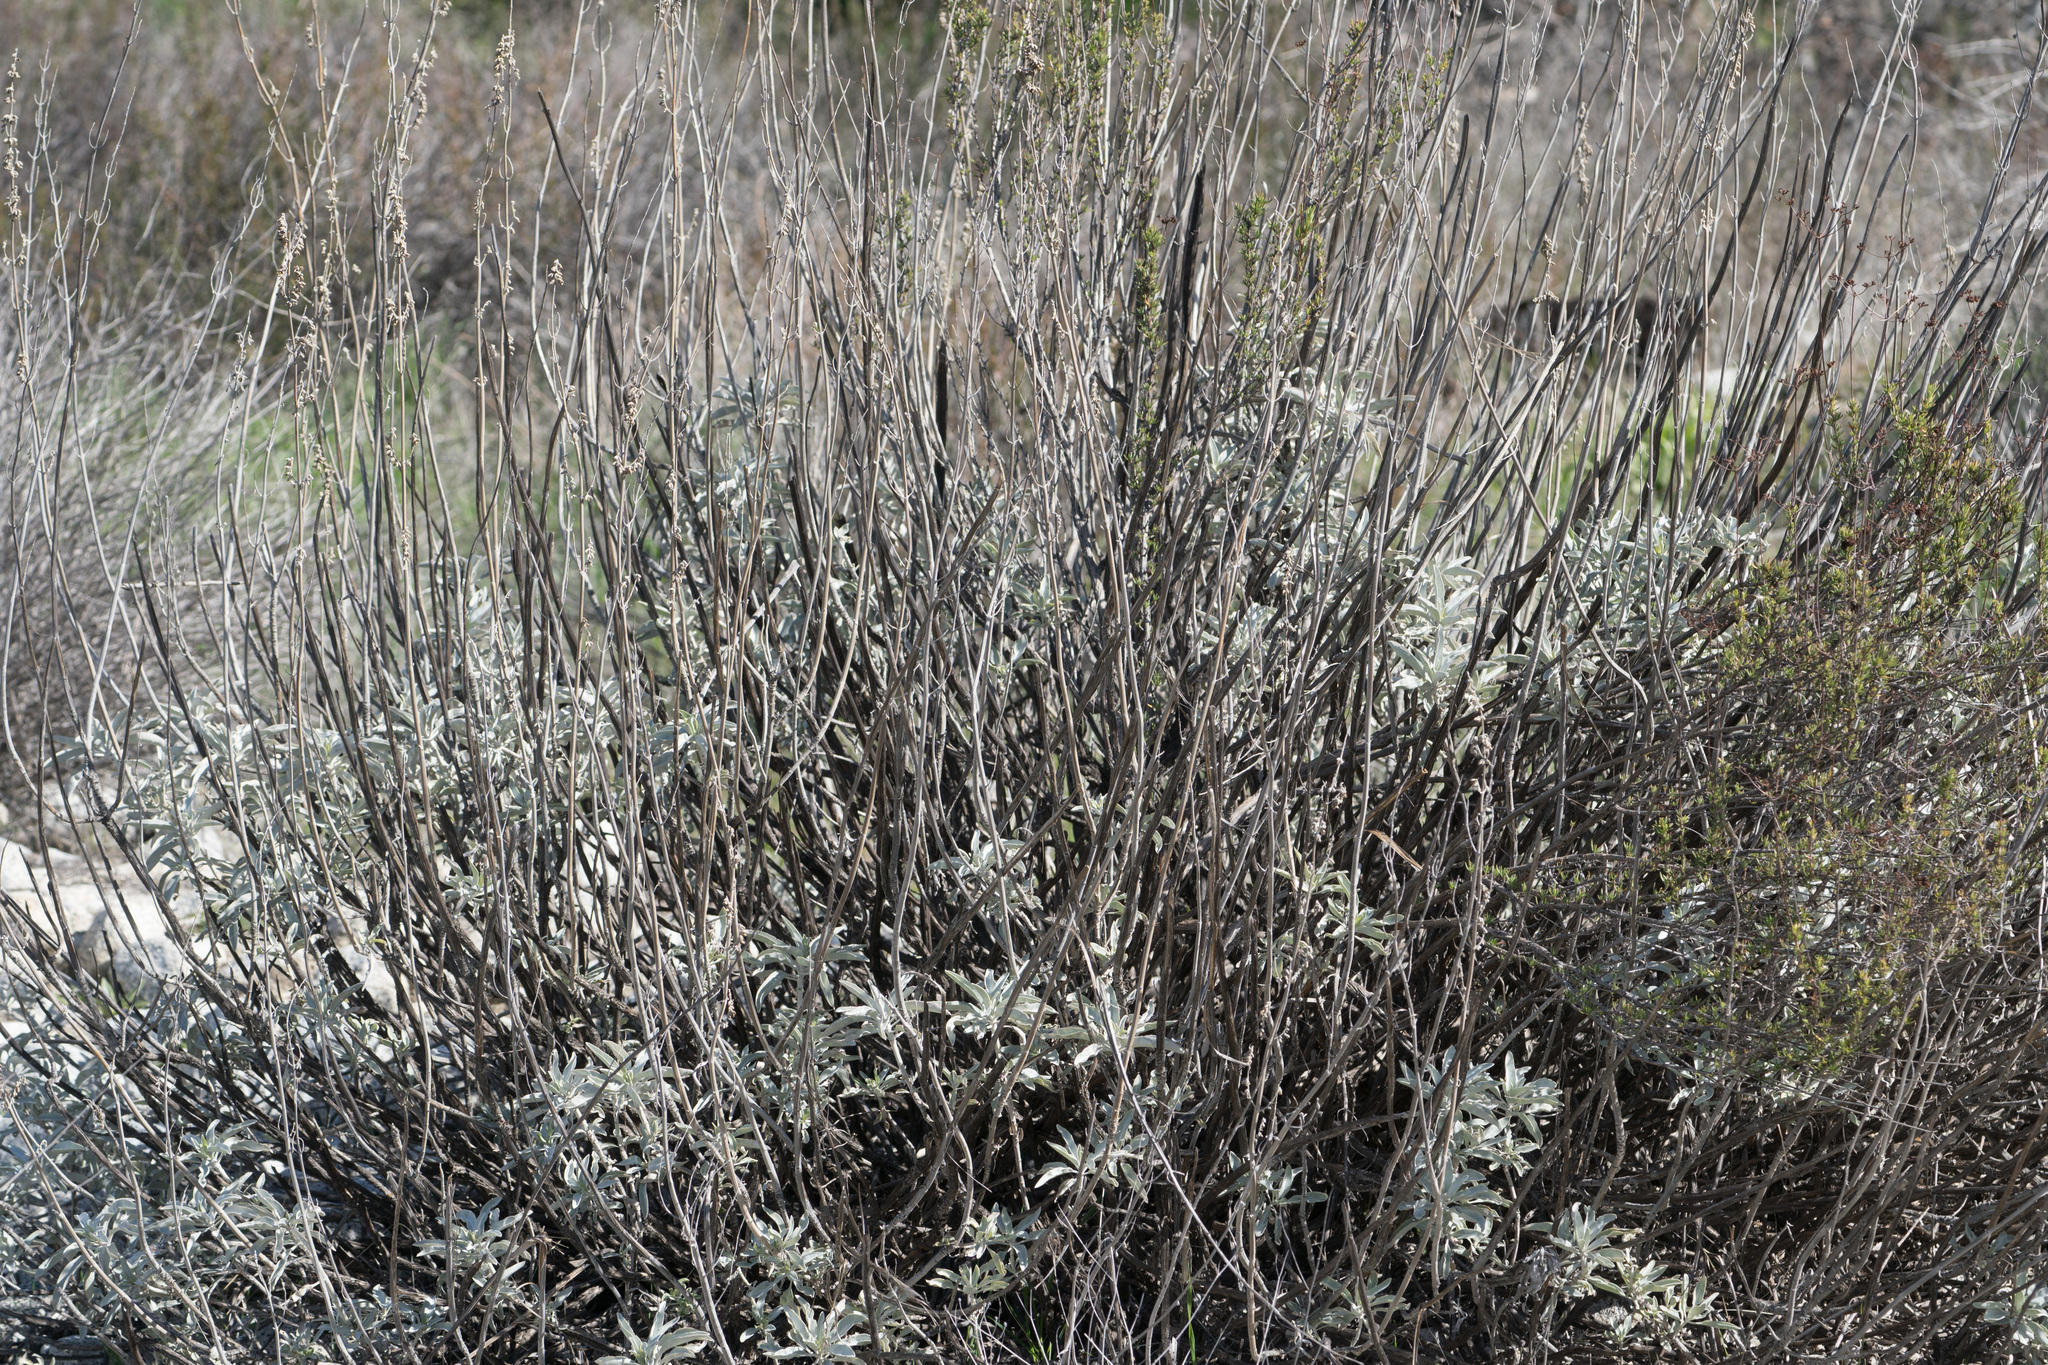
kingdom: Plantae
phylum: Tracheophyta
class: Magnoliopsida
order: Lamiales
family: Lamiaceae
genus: Salvia
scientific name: Salvia apiana
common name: White sage
